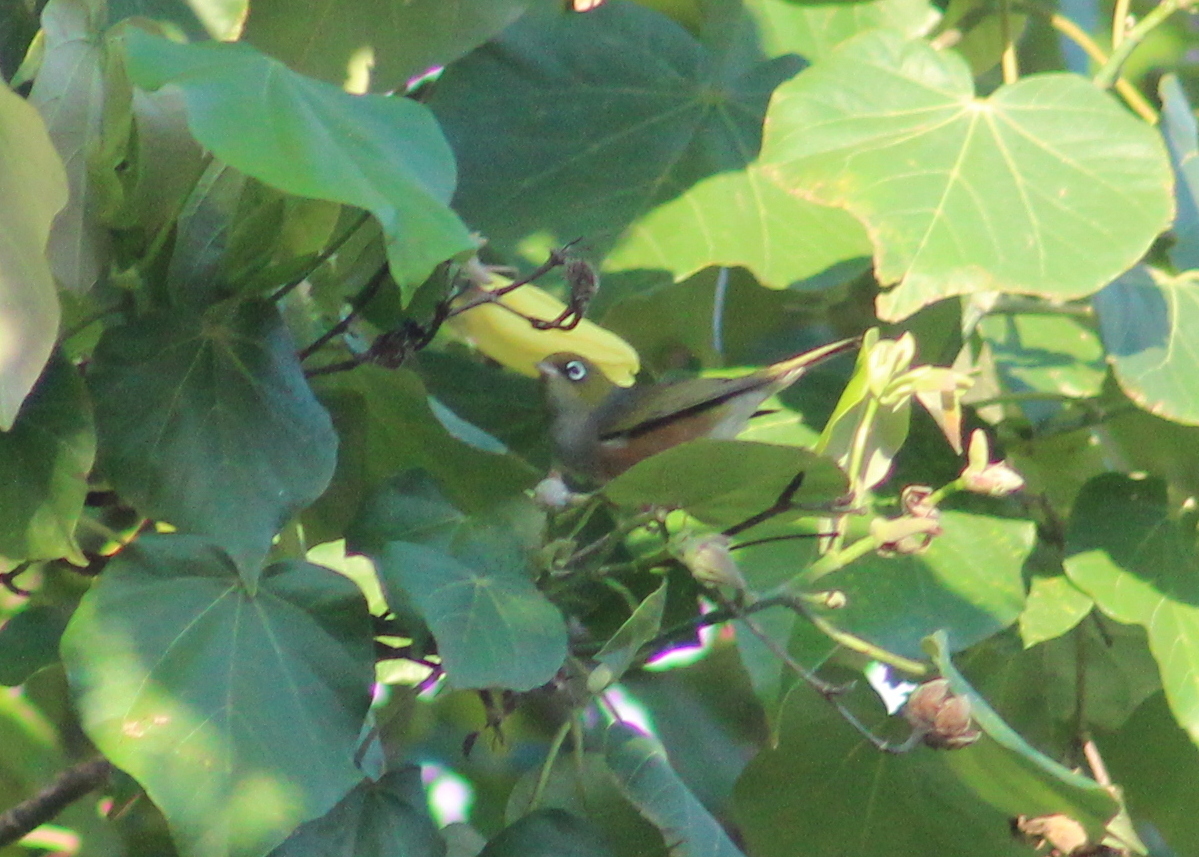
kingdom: Animalia
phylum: Chordata
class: Aves
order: Passeriformes
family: Zosteropidae
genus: Zosterops
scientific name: Zosterops lateralis
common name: Silvereye
